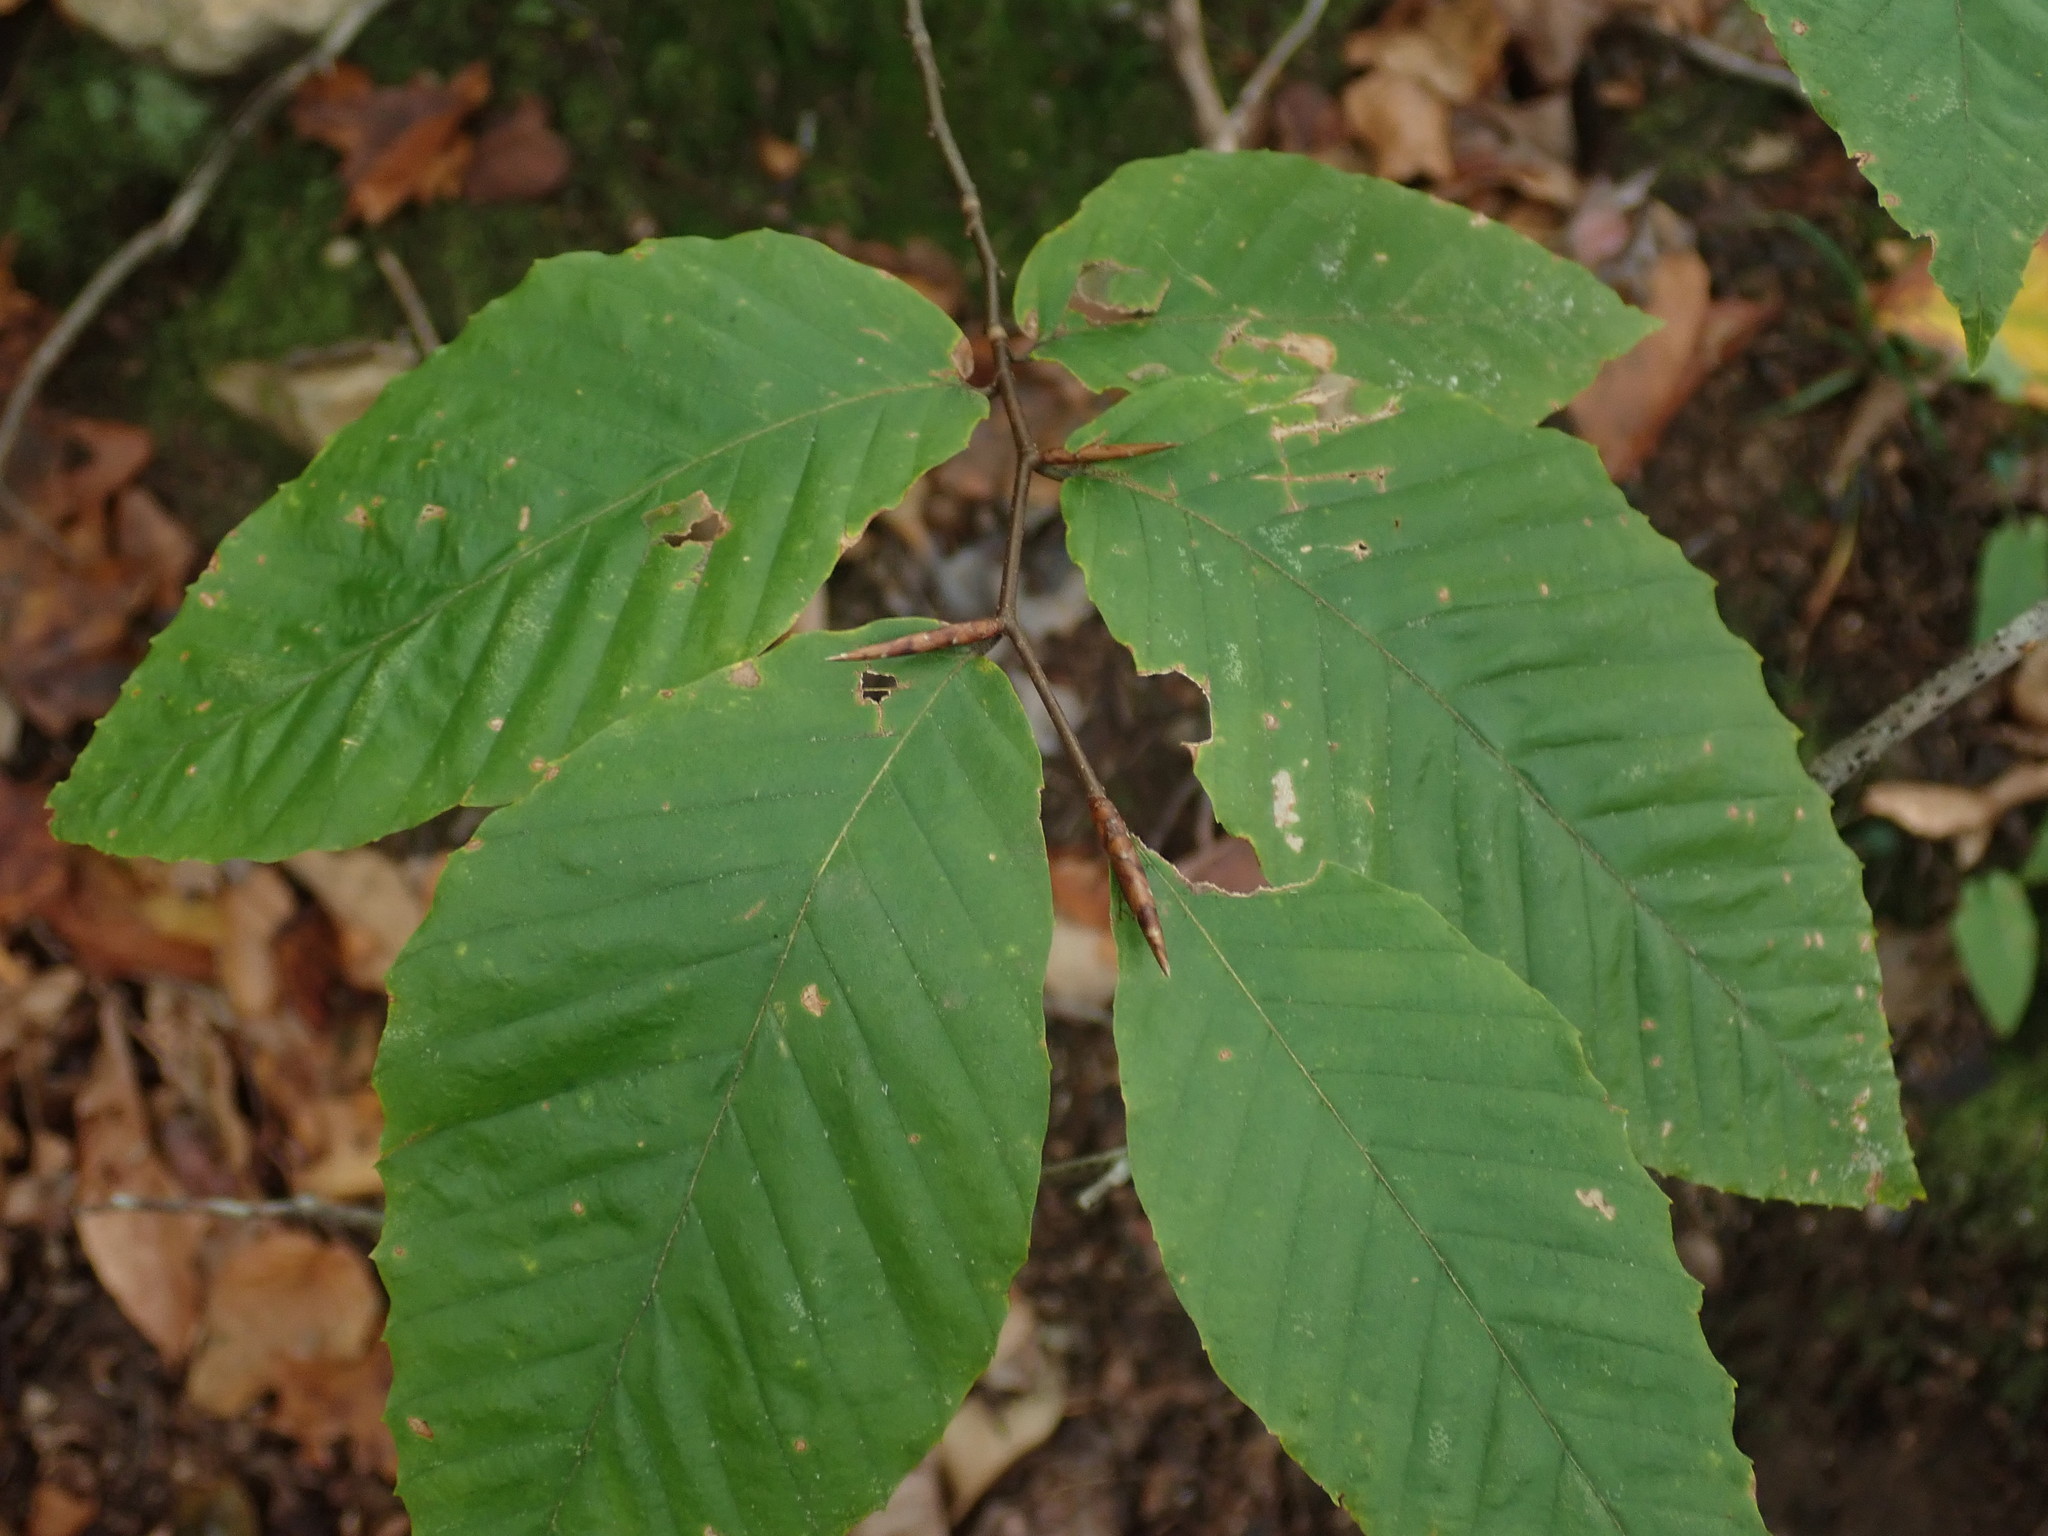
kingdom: Plantae
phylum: Tracheophyta
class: Magnoliopsida
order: Fagales
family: Fagaceae
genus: Fagus
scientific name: Fagus grandifolia
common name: American beech
